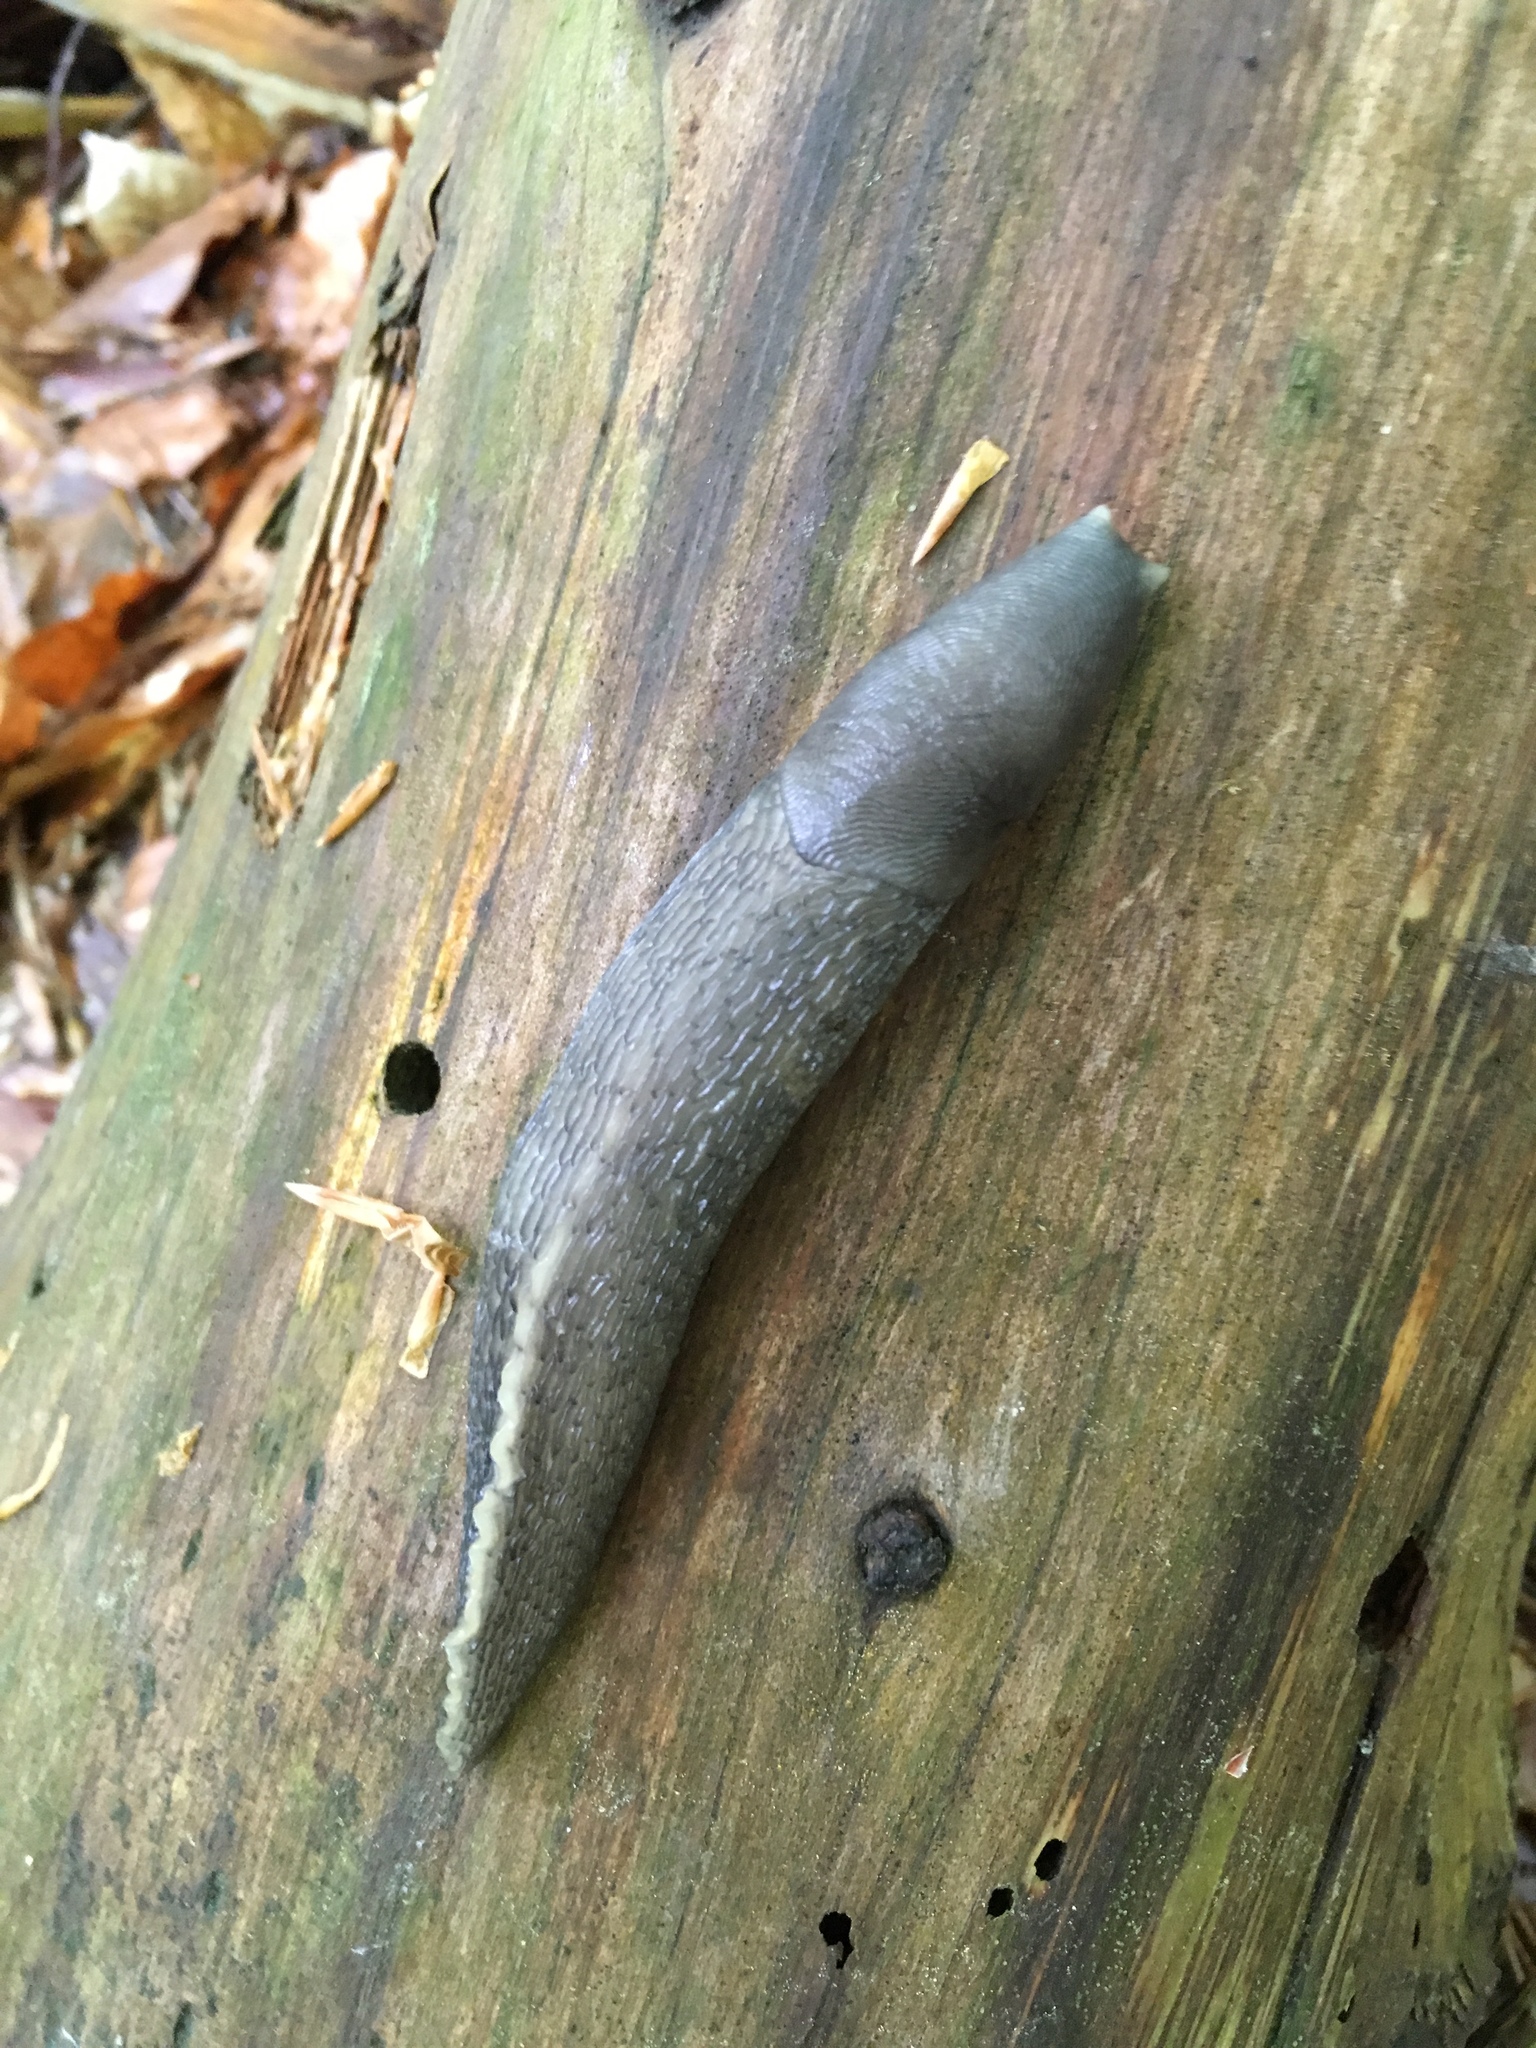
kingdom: Animalia
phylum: Mollusca
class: Gastropoda
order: Stylommatophora
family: Limacidae
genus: Limax
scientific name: Limax cinereoniger
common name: Ash-black slug
